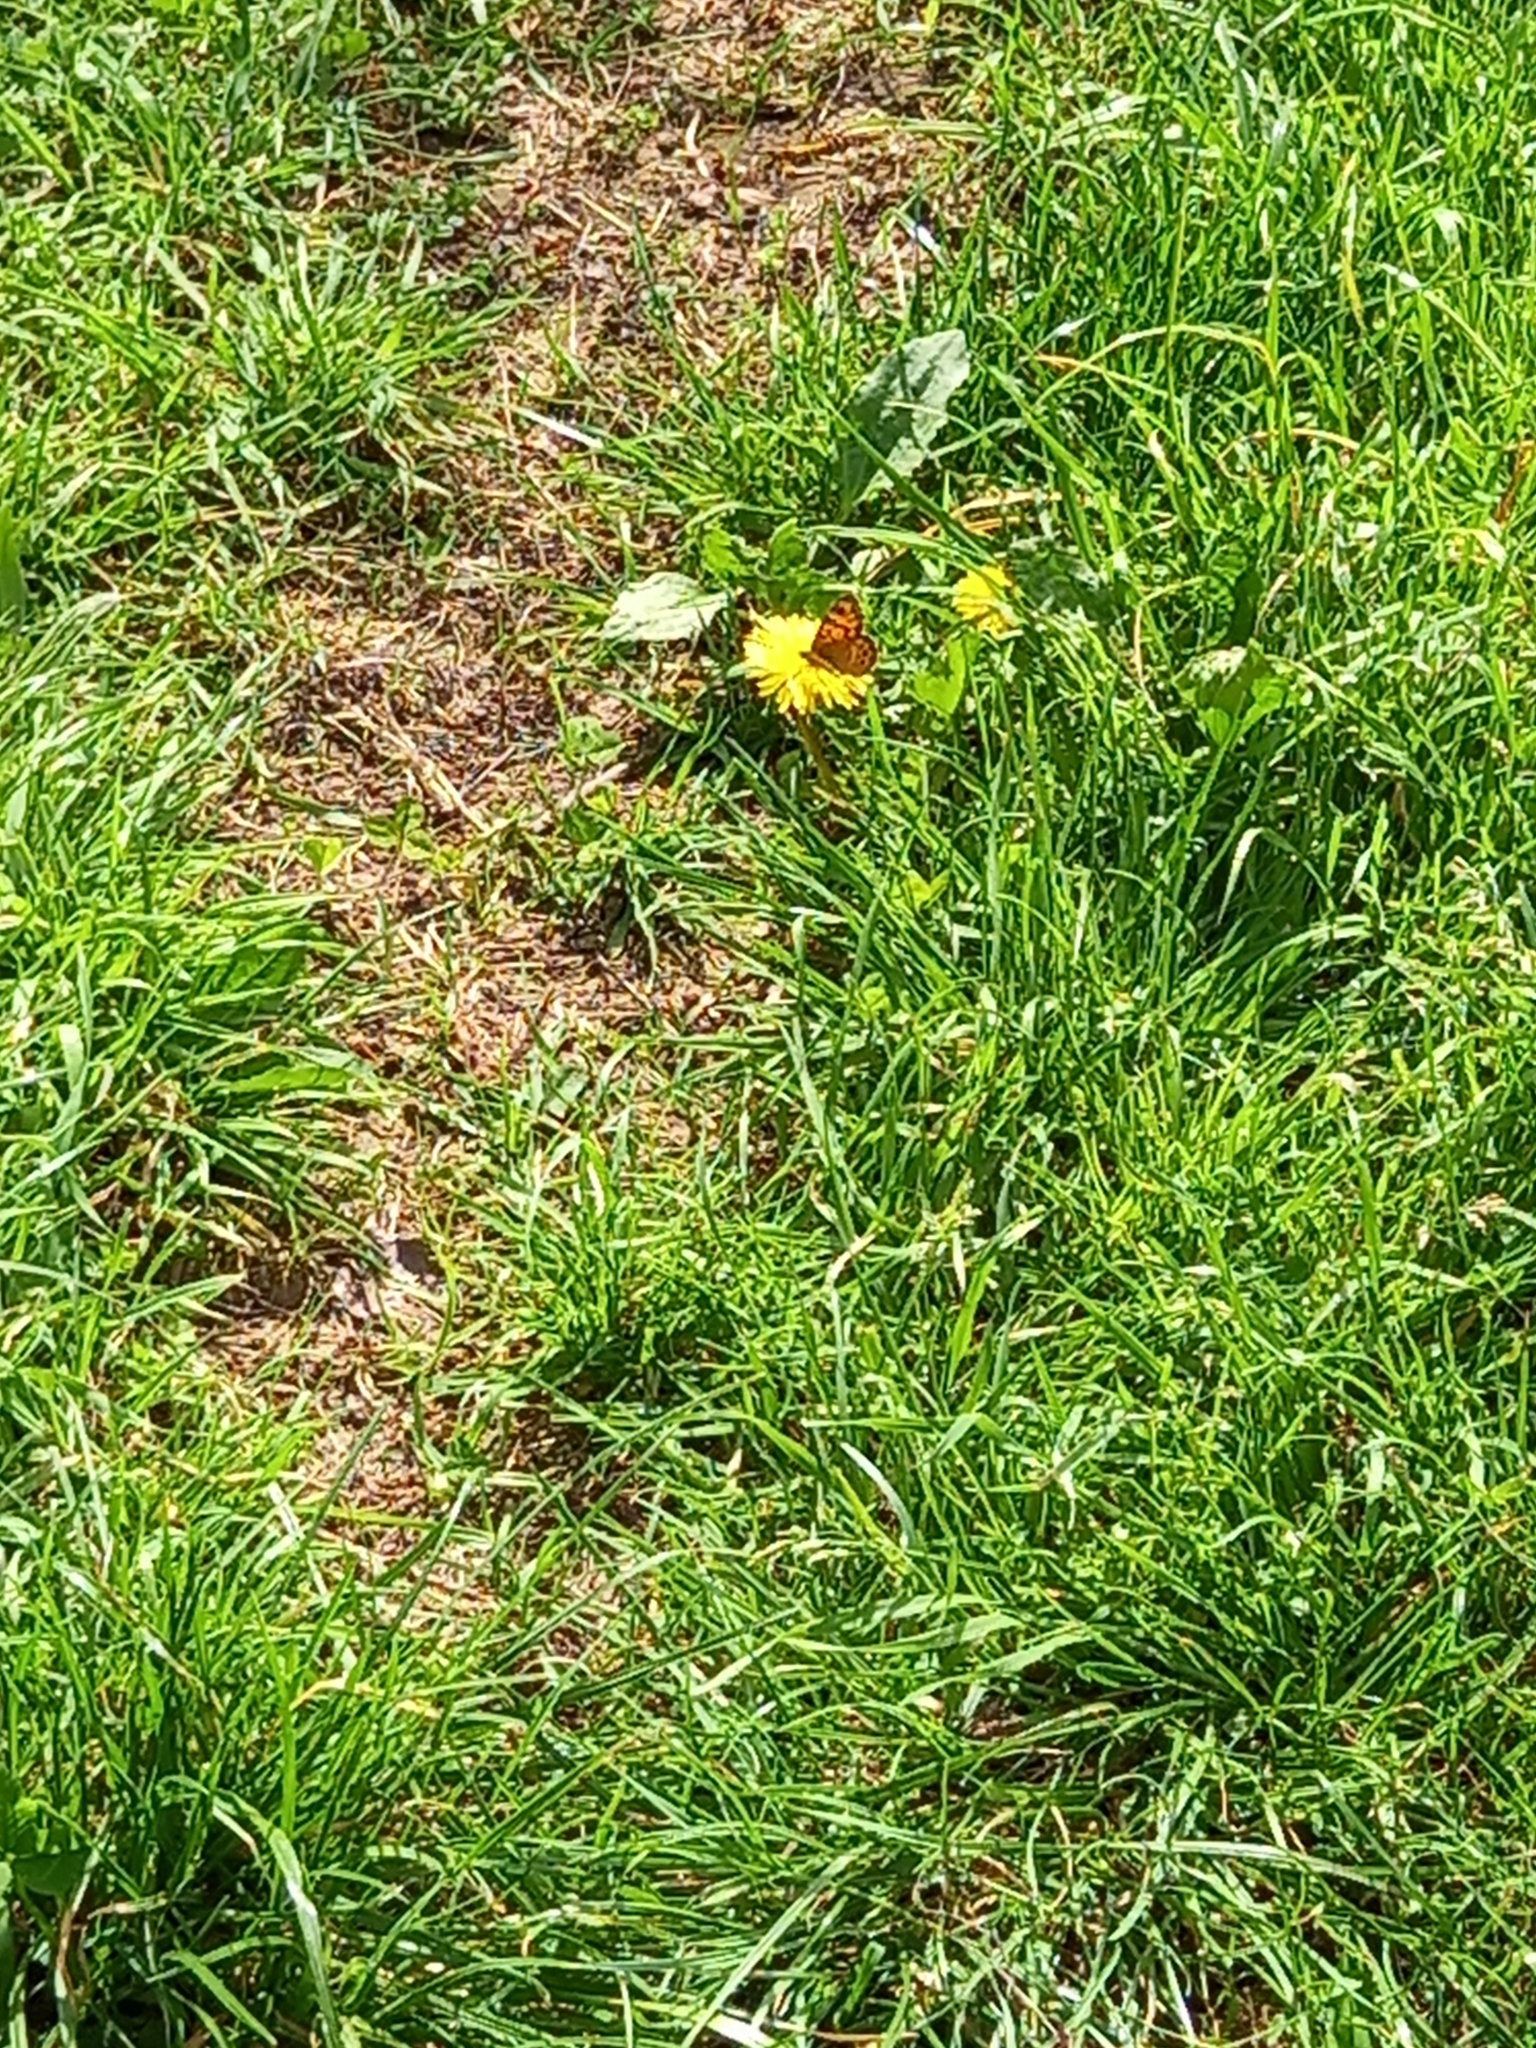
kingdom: Animalia
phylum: Arthropoda
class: Insecta
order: Lepidoptera
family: Nymphalidae
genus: Pararge
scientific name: Pararge Lasiommata megera
